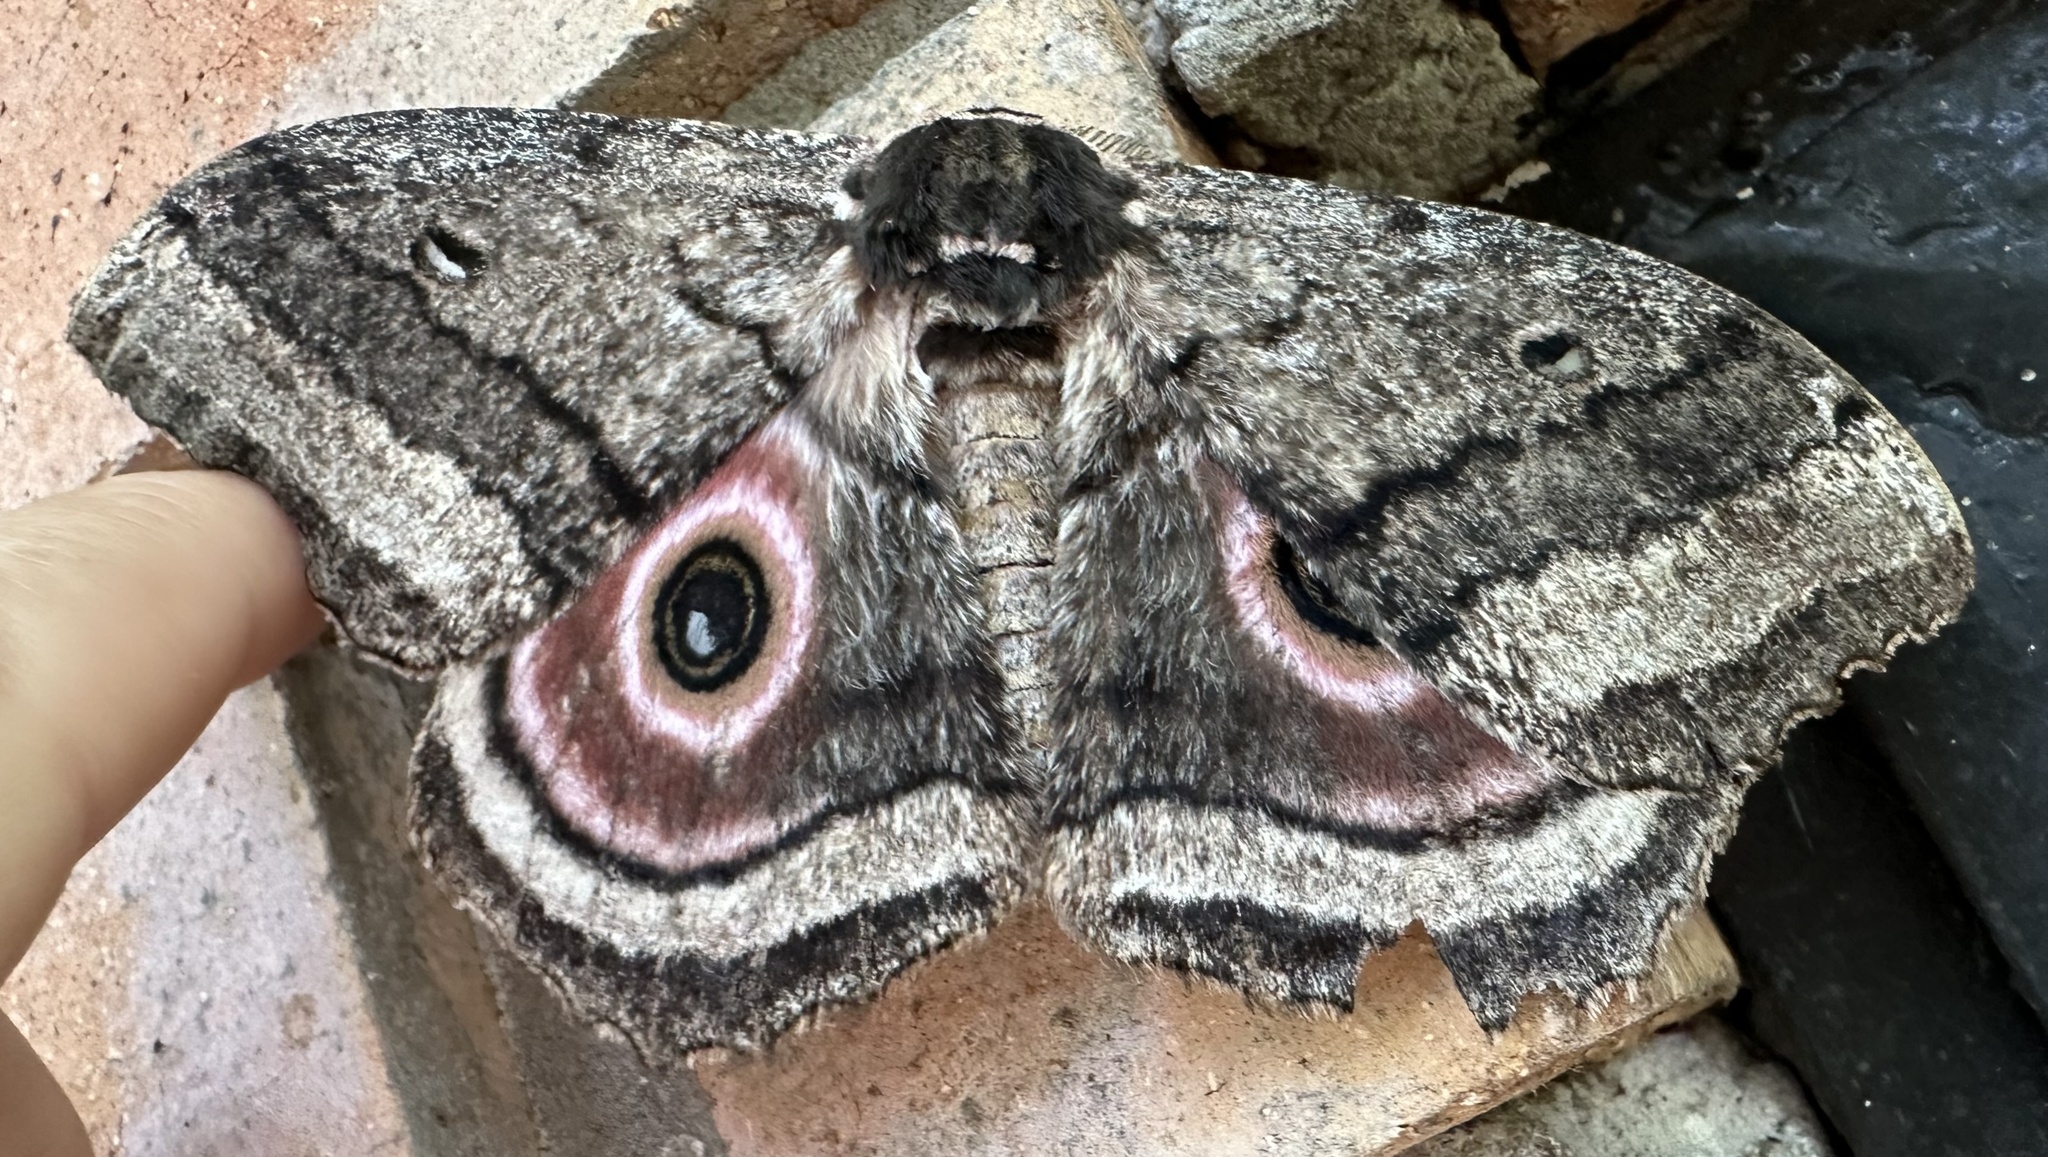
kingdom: Animalia
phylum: Arthropoda
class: Insecta
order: Lepidoptera
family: Saturniidae
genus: Gynanisa
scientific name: Gynanisa maja
